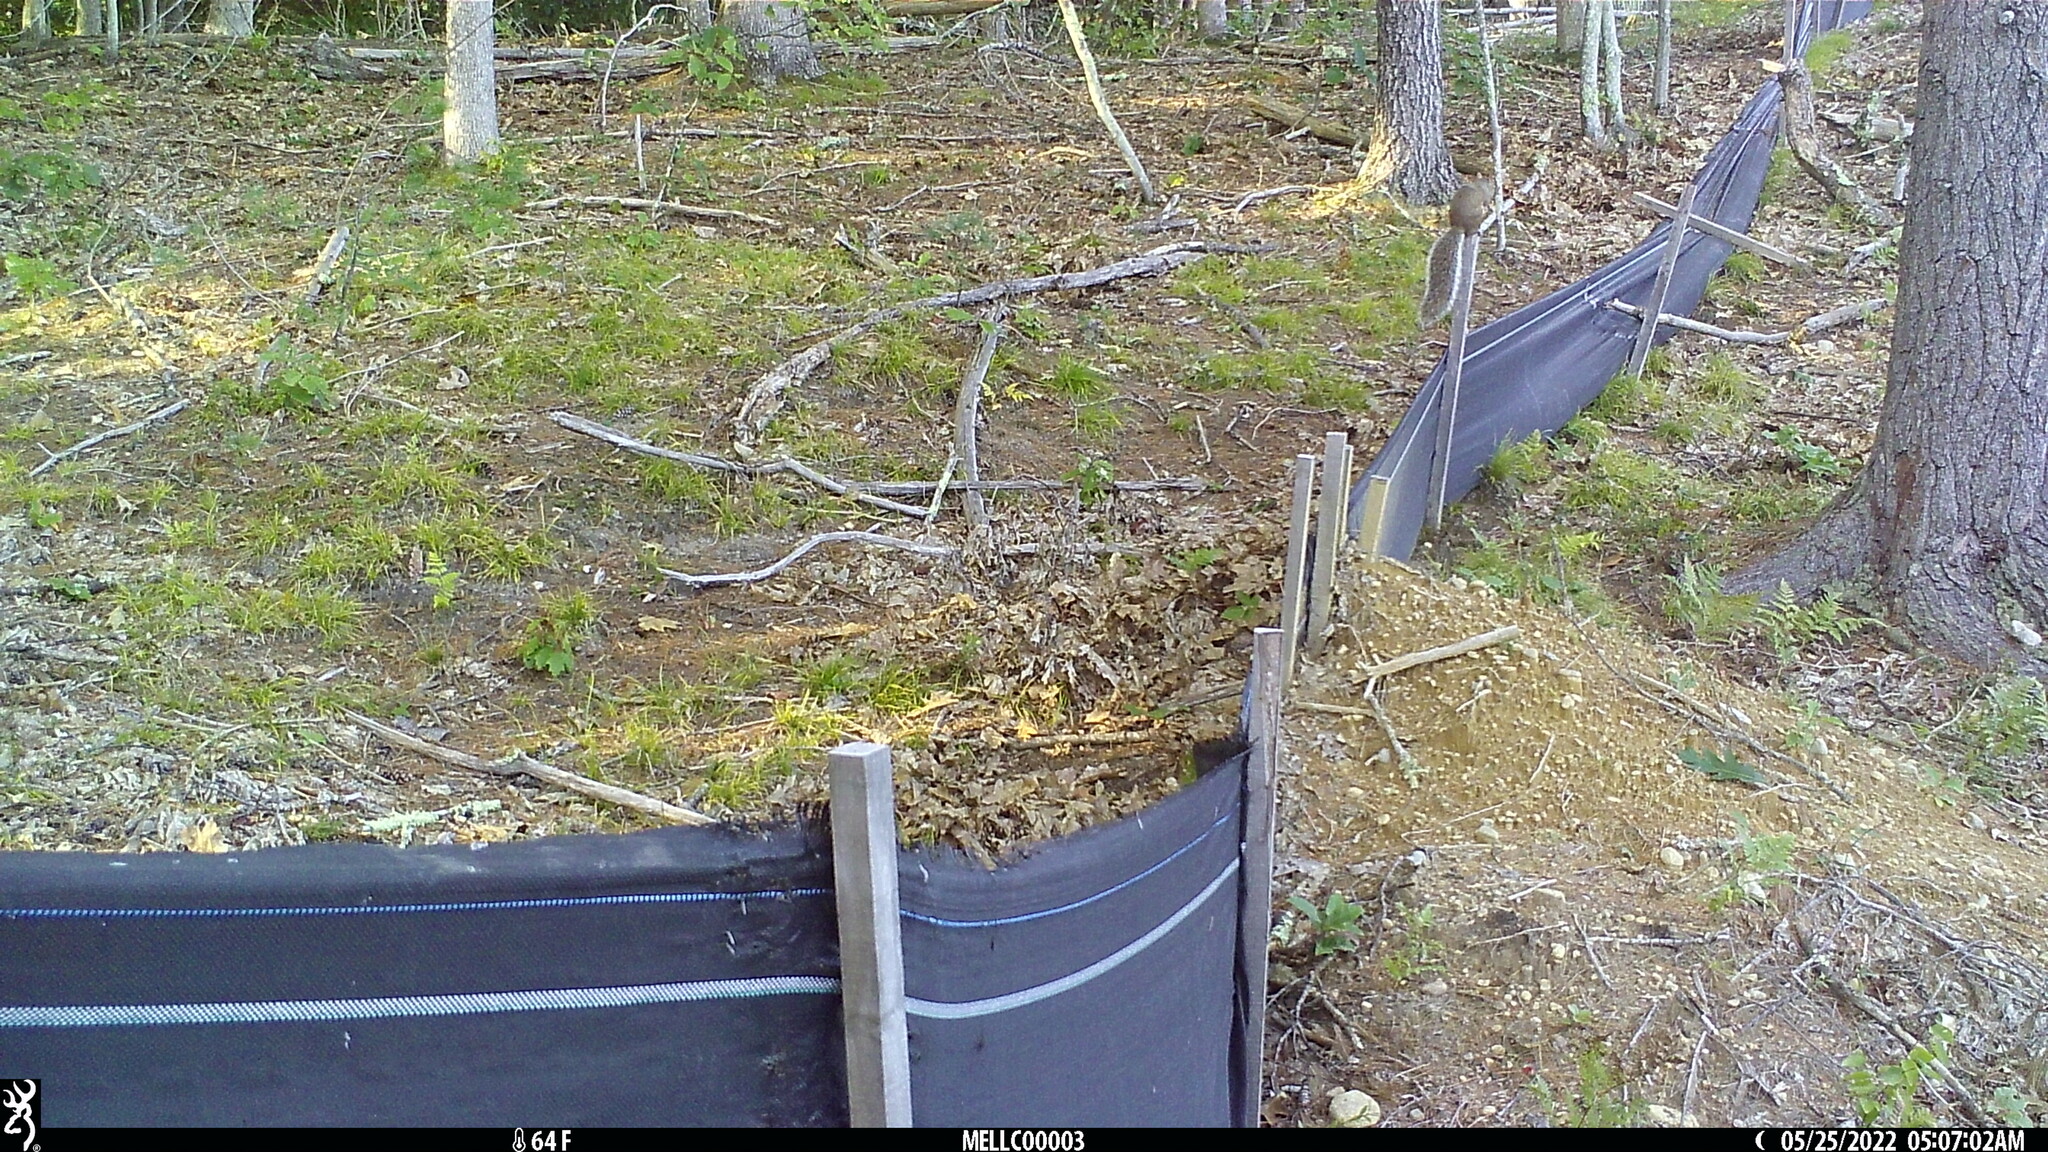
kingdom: Animalia
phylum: Chordata
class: Mammalia
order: Rodentia
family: Sciuridae
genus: Sciurus
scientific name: Sciurus carolinensis
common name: Eastern gray squirrel
